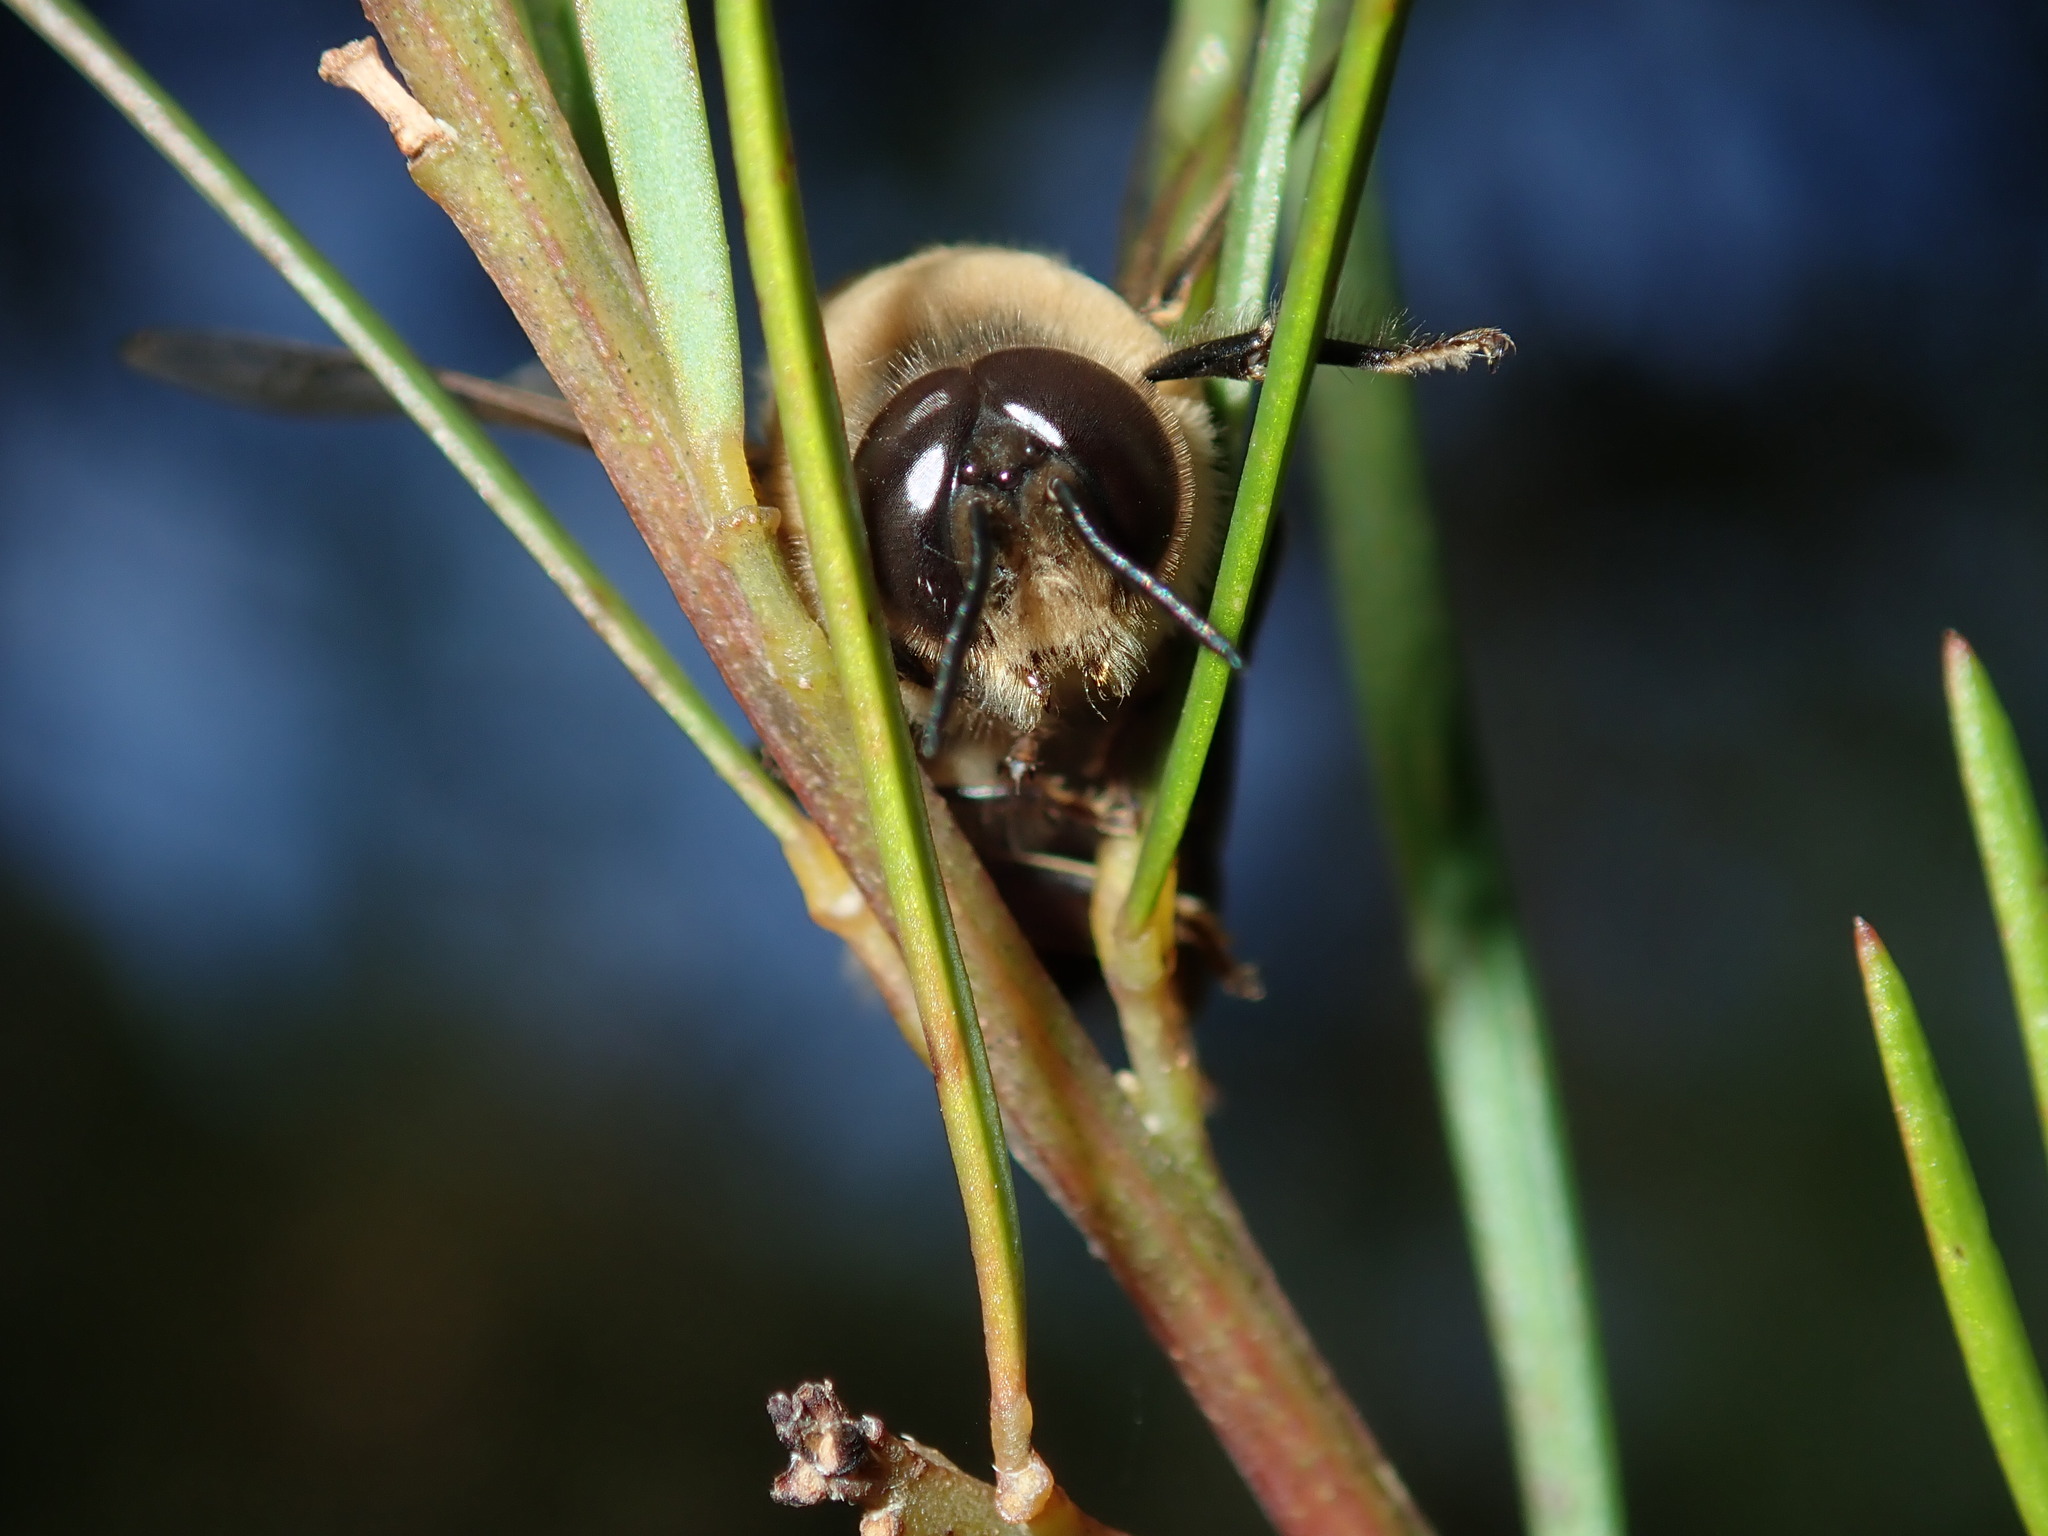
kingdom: Animalia
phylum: Arthropoda
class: Insecta
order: Hymenoptera
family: Apidae
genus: Apis
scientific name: Apis mellifera
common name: Honey bee
